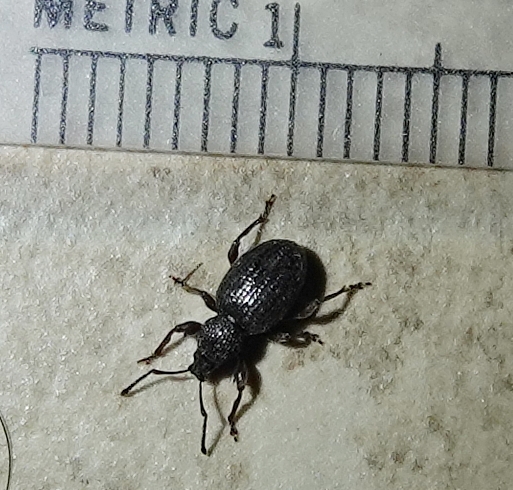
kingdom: Animalia
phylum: Arthropoda
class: Insecta
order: Coleoptera
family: Curculionidae
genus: Otiorhynchus
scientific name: Otiorhynchus ovatus
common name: Strawberry root weevil
